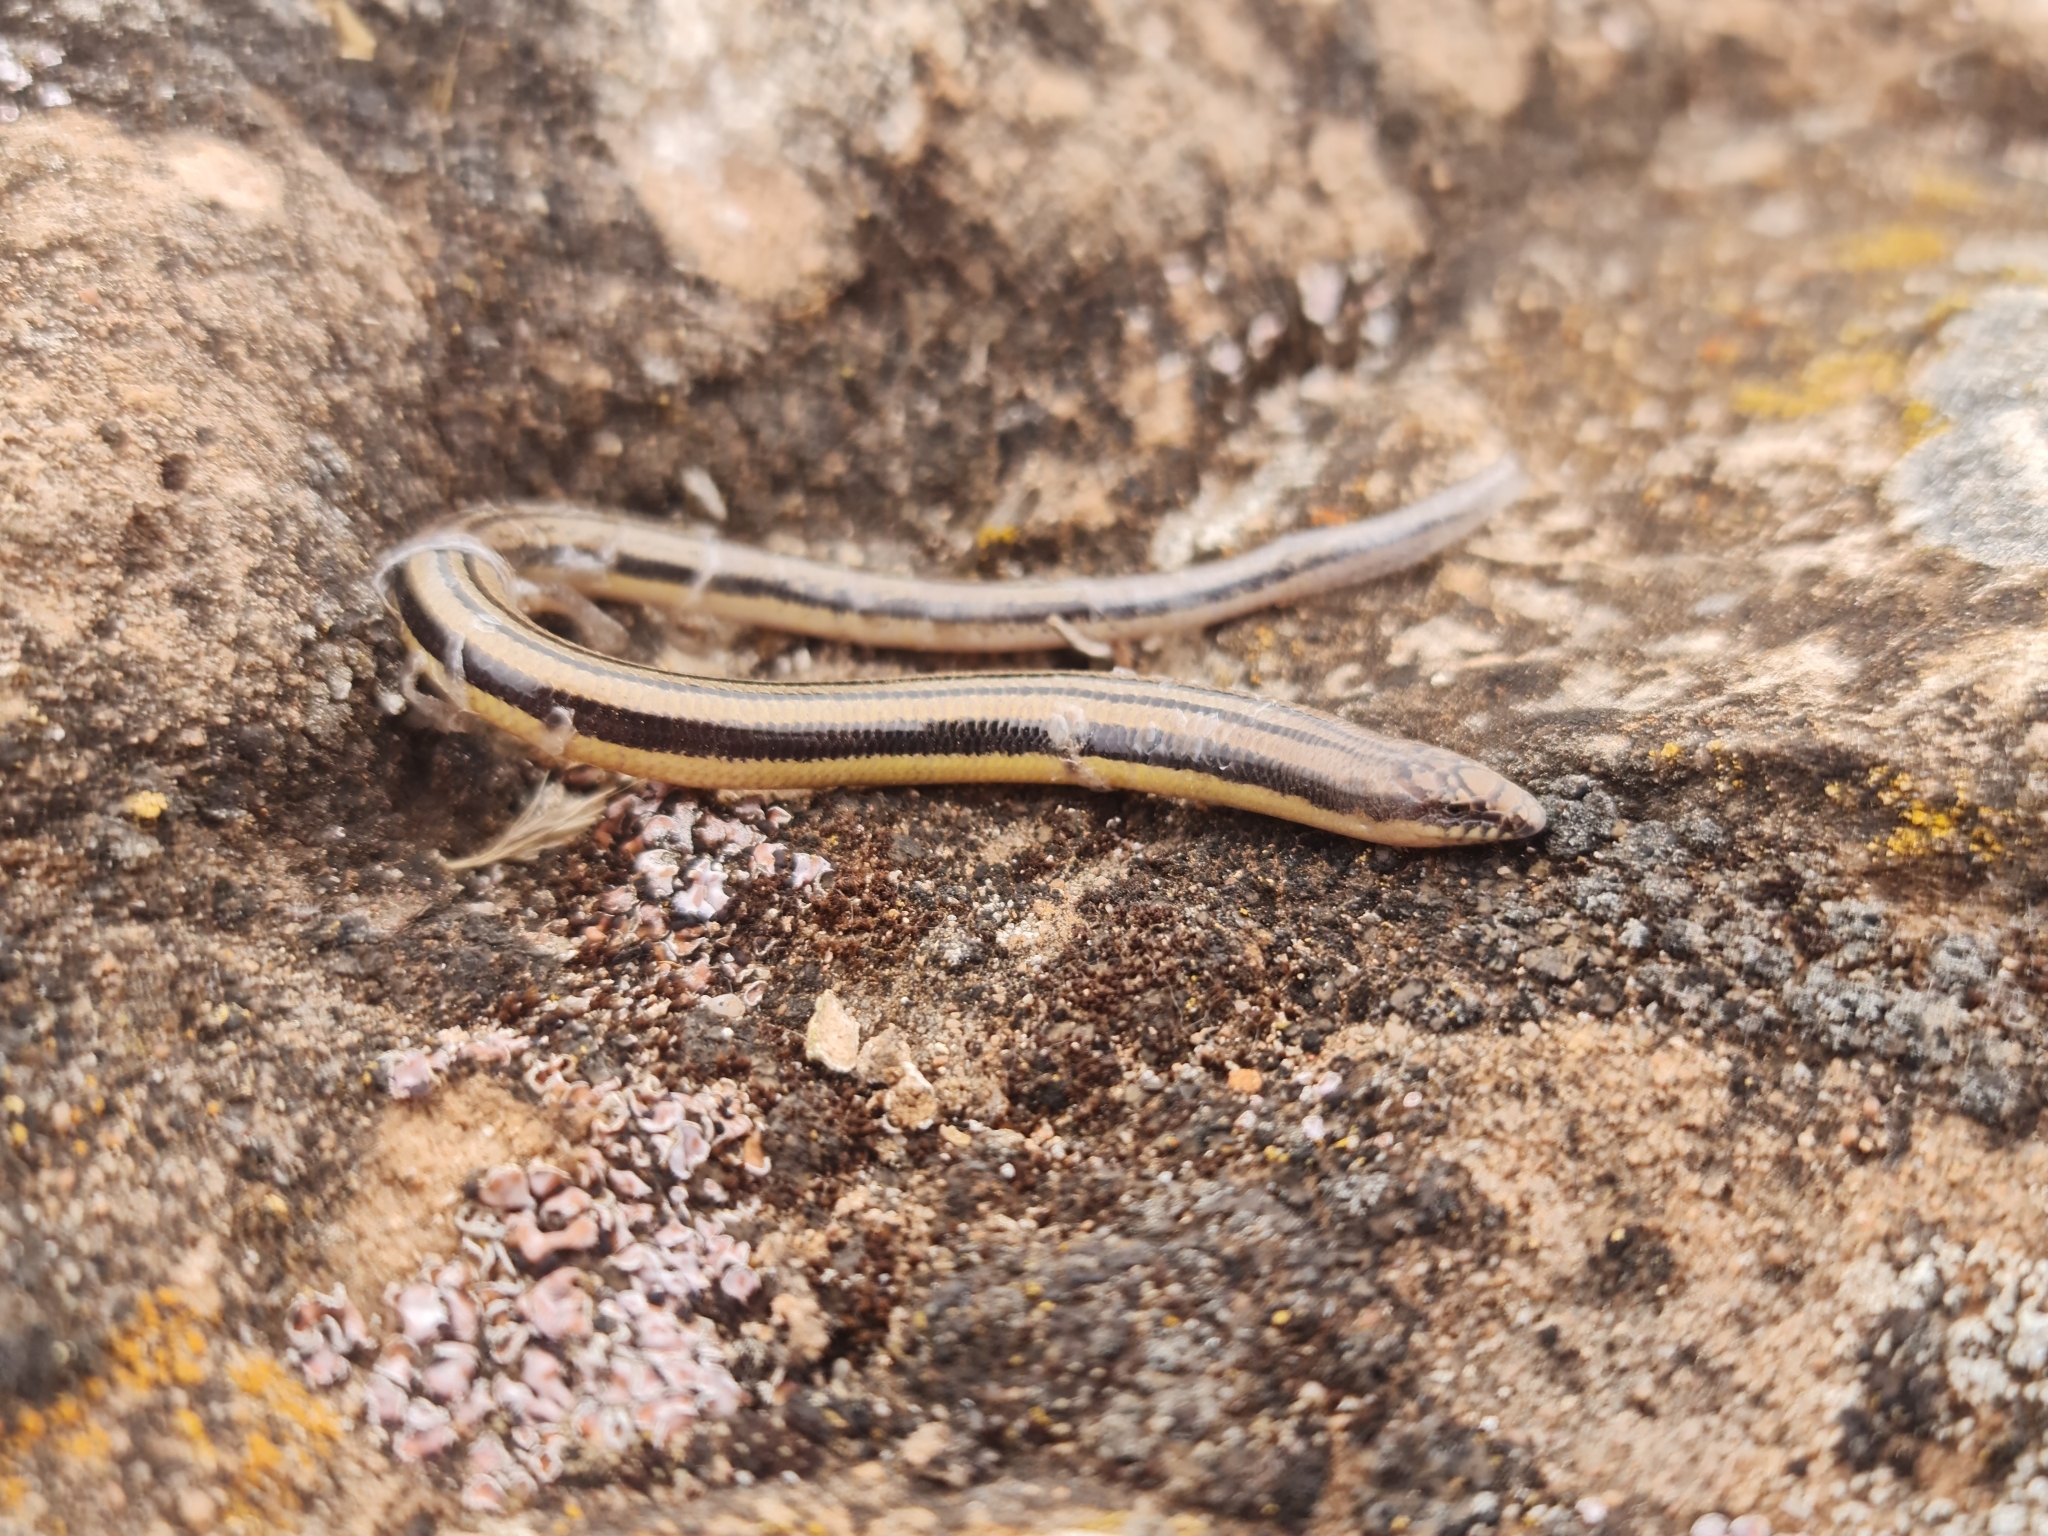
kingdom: Animalia
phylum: Chordata
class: Squamata
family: Scincidae
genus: Lerista
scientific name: Lerista edwardsae
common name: Myall slider
